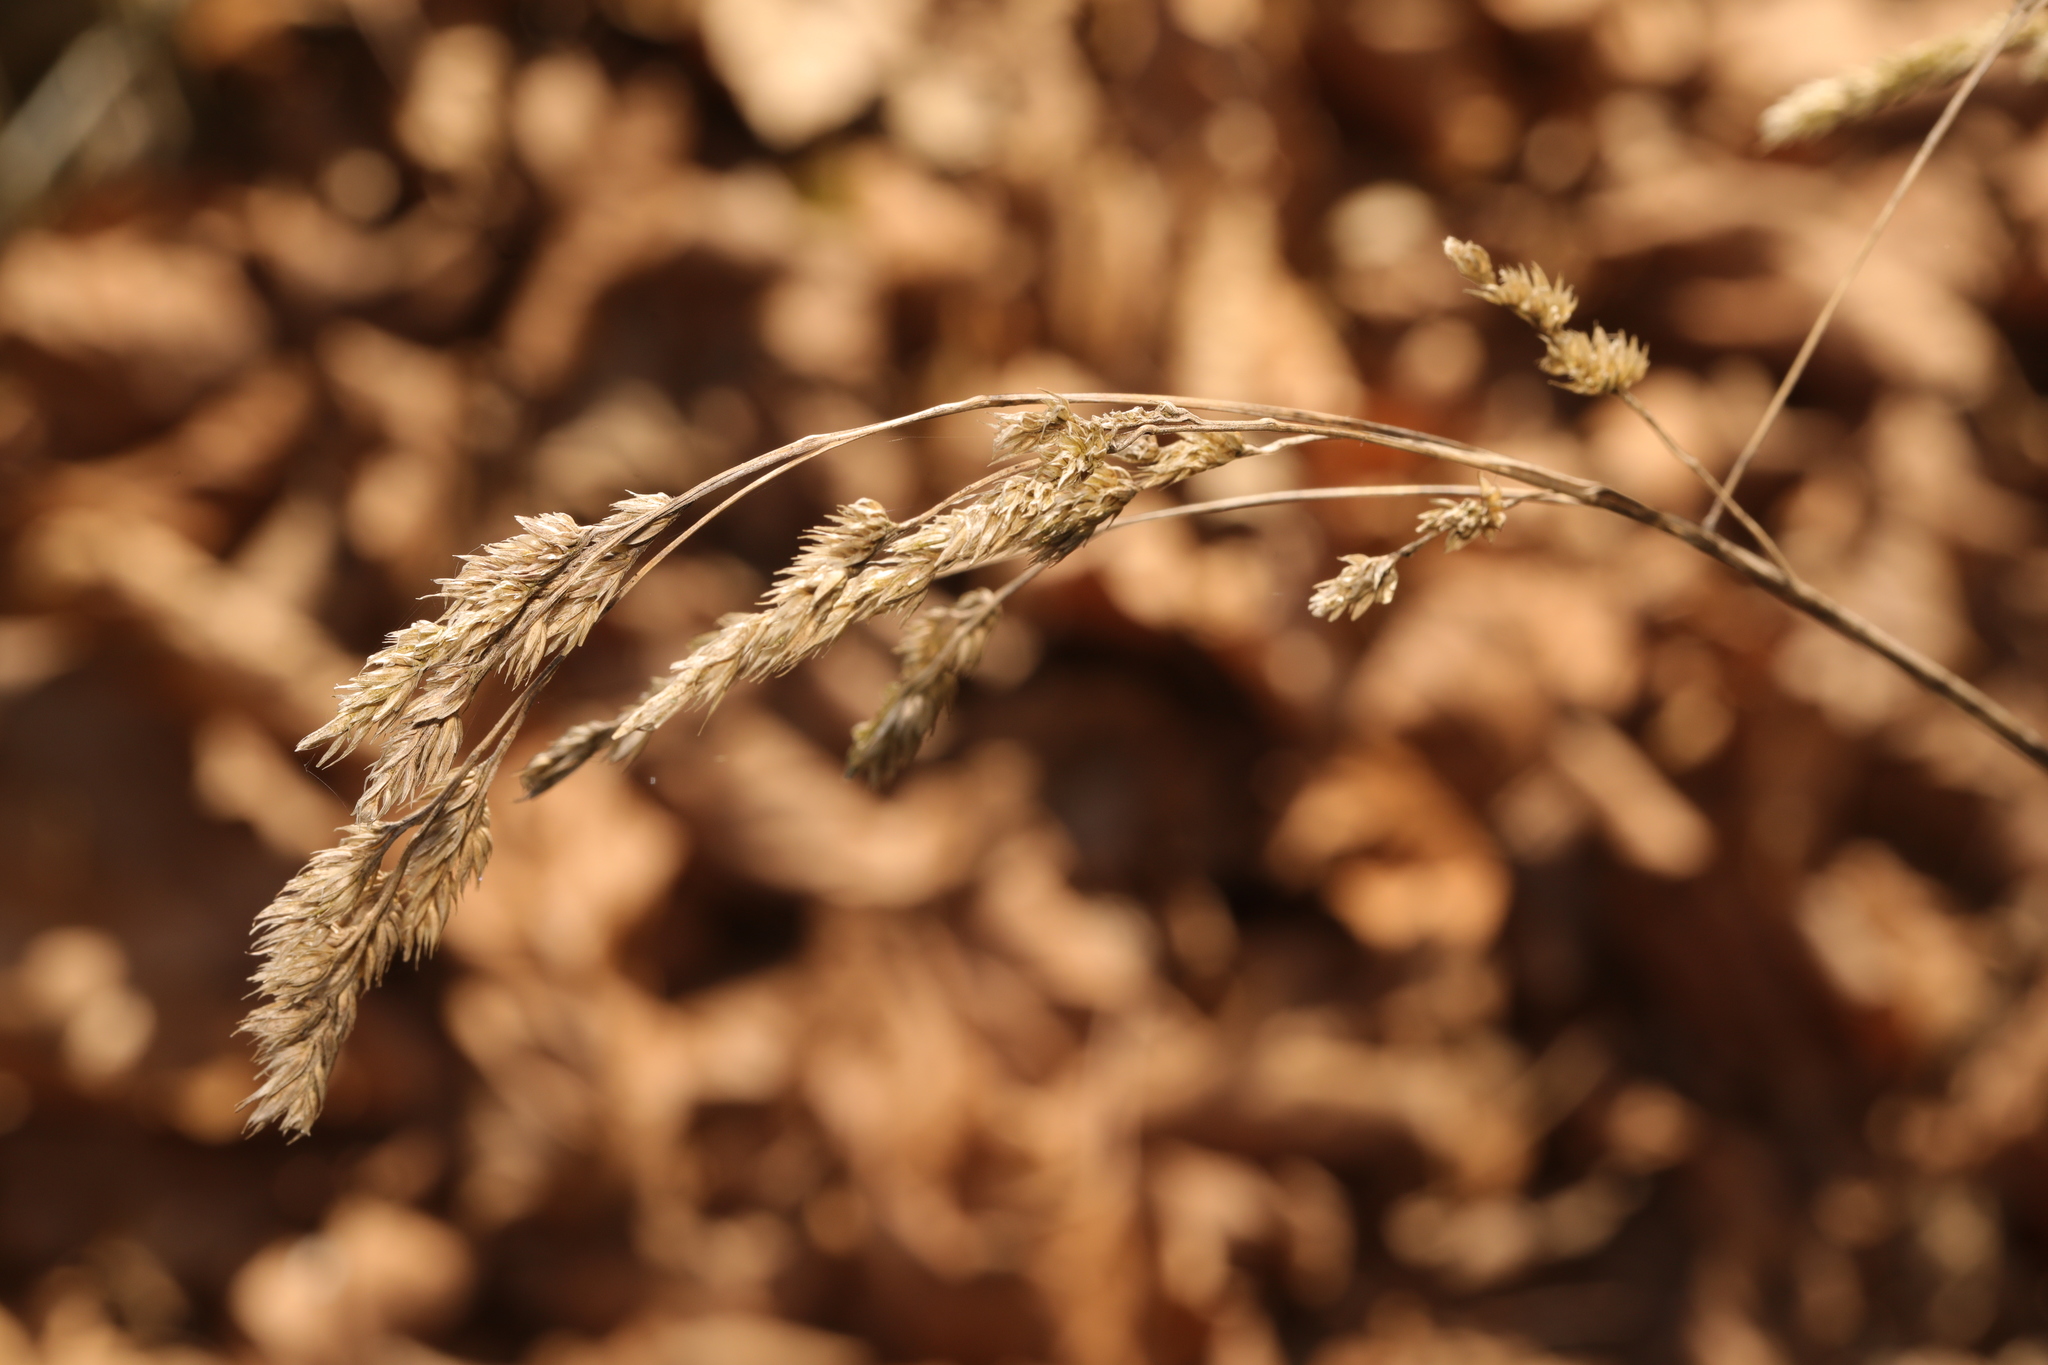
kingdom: Plantae
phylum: Tracheophyta
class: Liliopsida
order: Poales
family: Poaceae
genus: Dactylis
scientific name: Dactylis glomerata
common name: Orchardgrass
